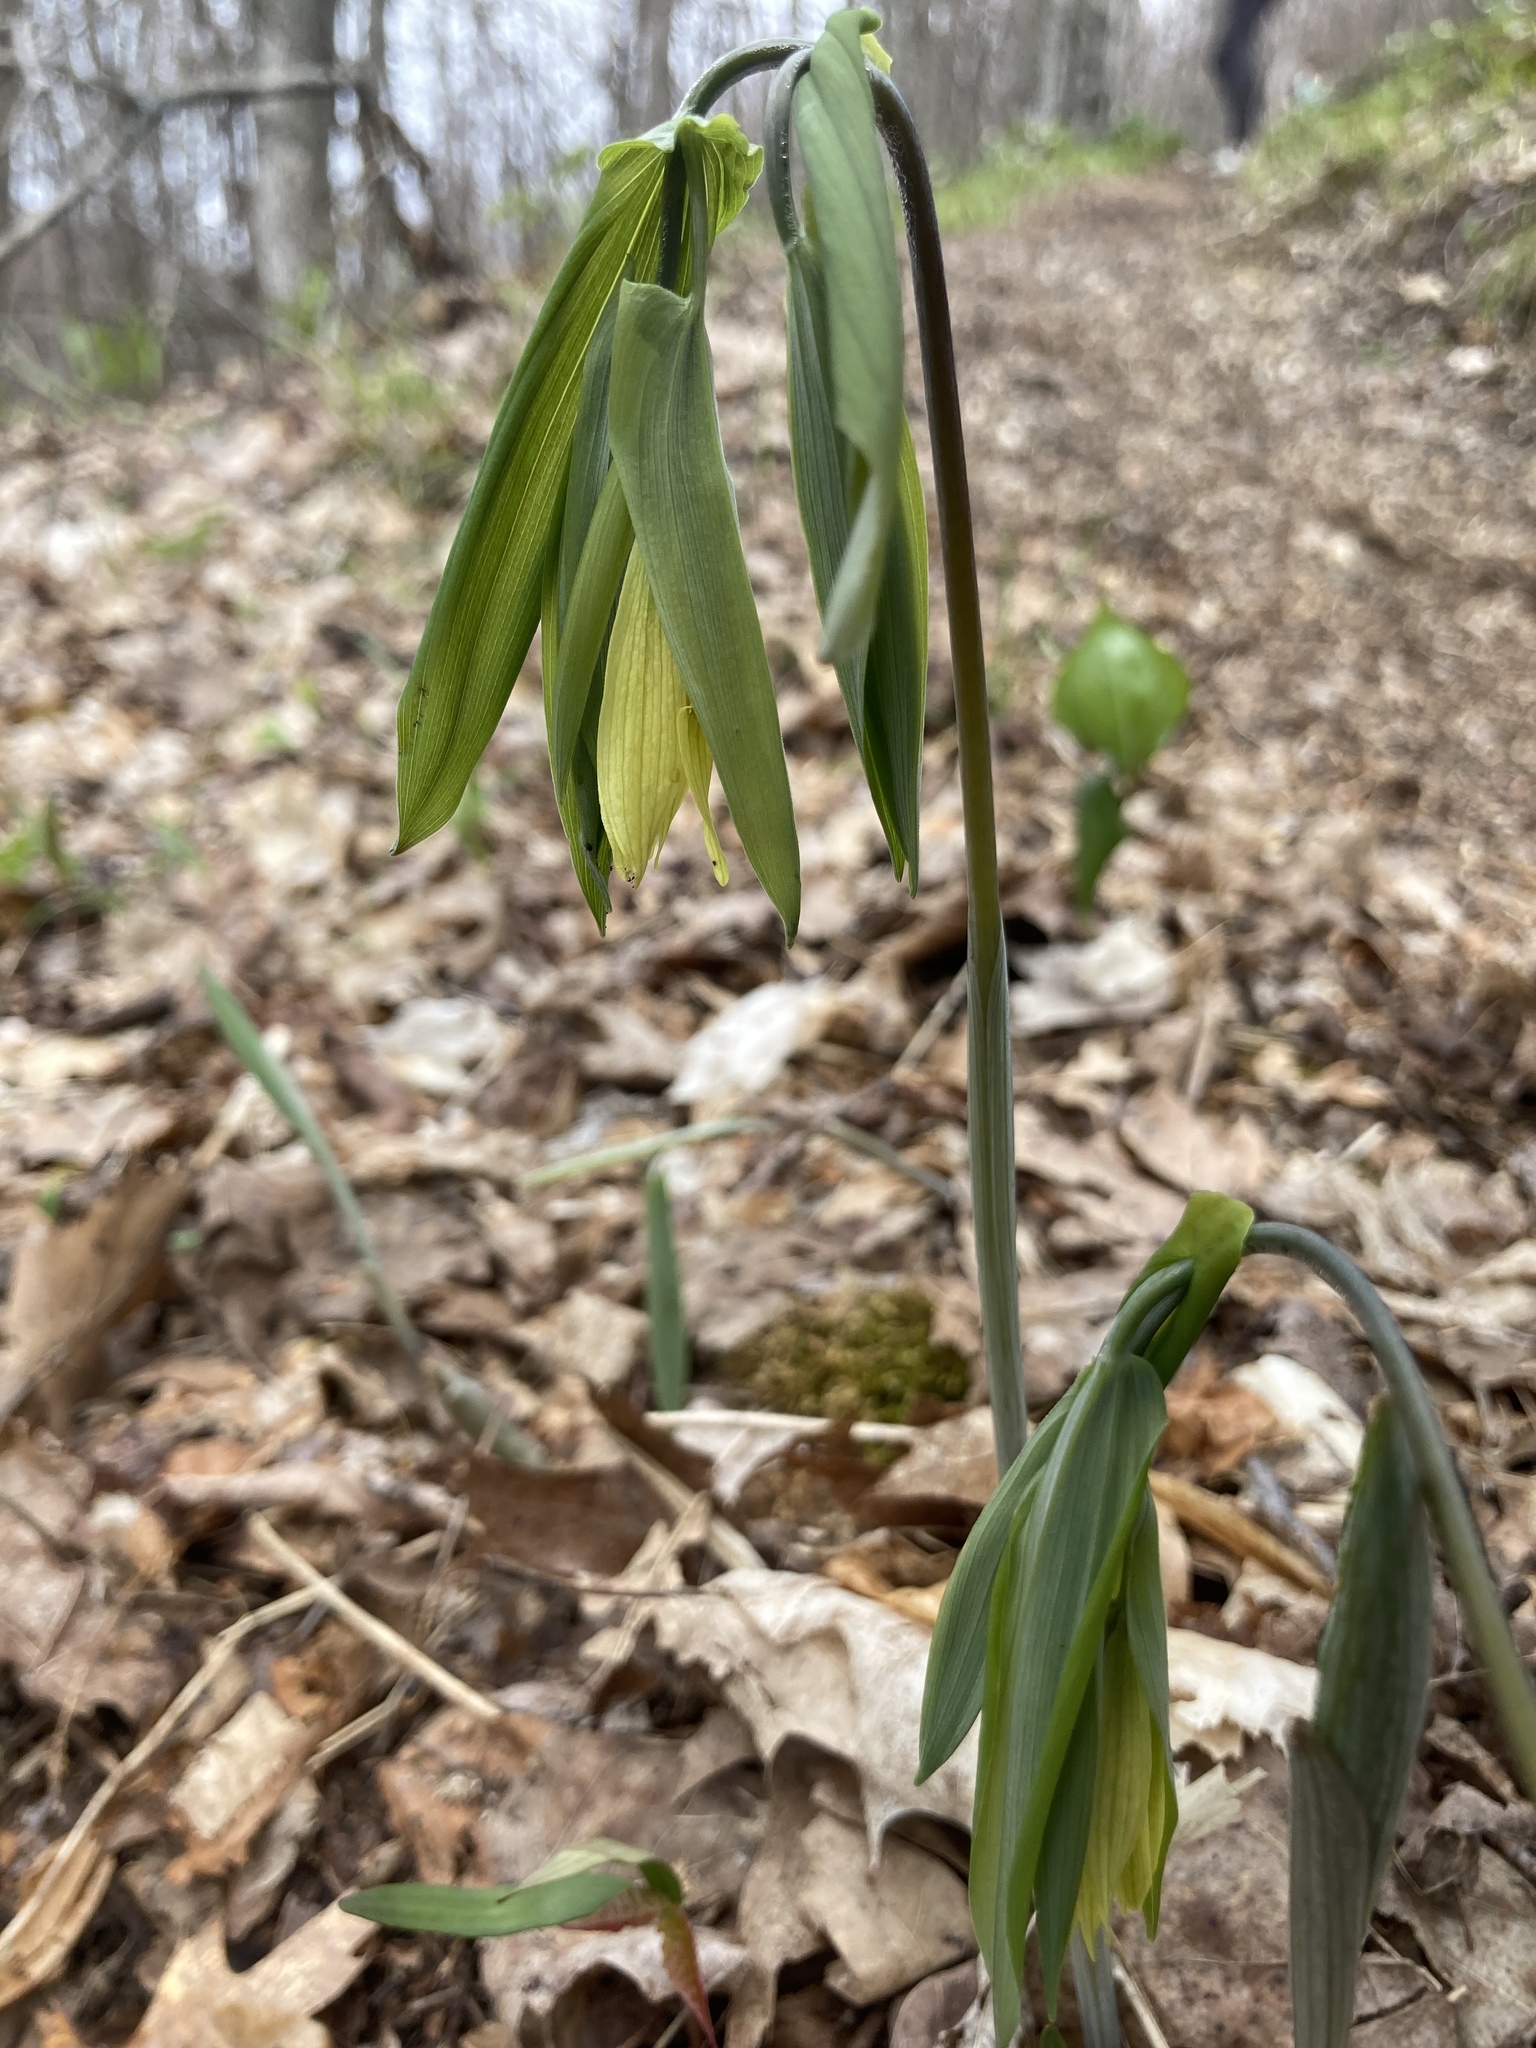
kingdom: Plantae
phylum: Tracheophyta
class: Liliopsida
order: Liliales
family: Colchicaceae
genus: Uvularia
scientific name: Uvularia grandiflora
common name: Bellwort
